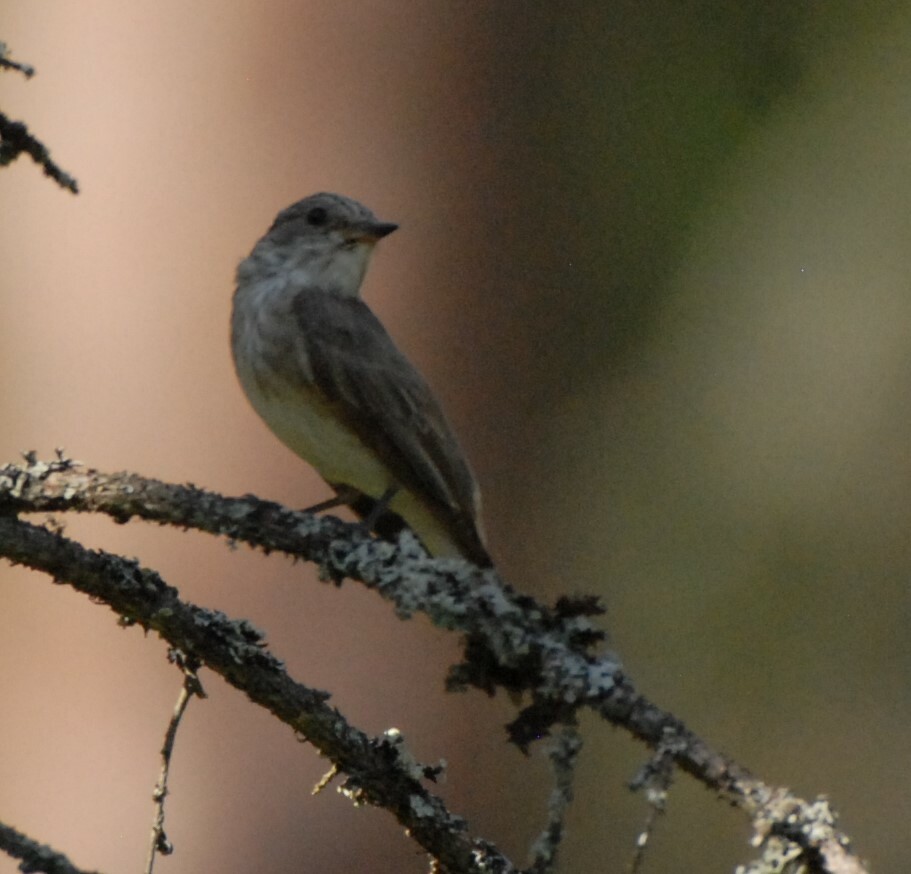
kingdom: Animalia
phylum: Chordata
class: Aves
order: Passeriformes
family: Muscicapidae
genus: Muscicapa
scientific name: Muscicapa striata
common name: Spotted flycatcher
